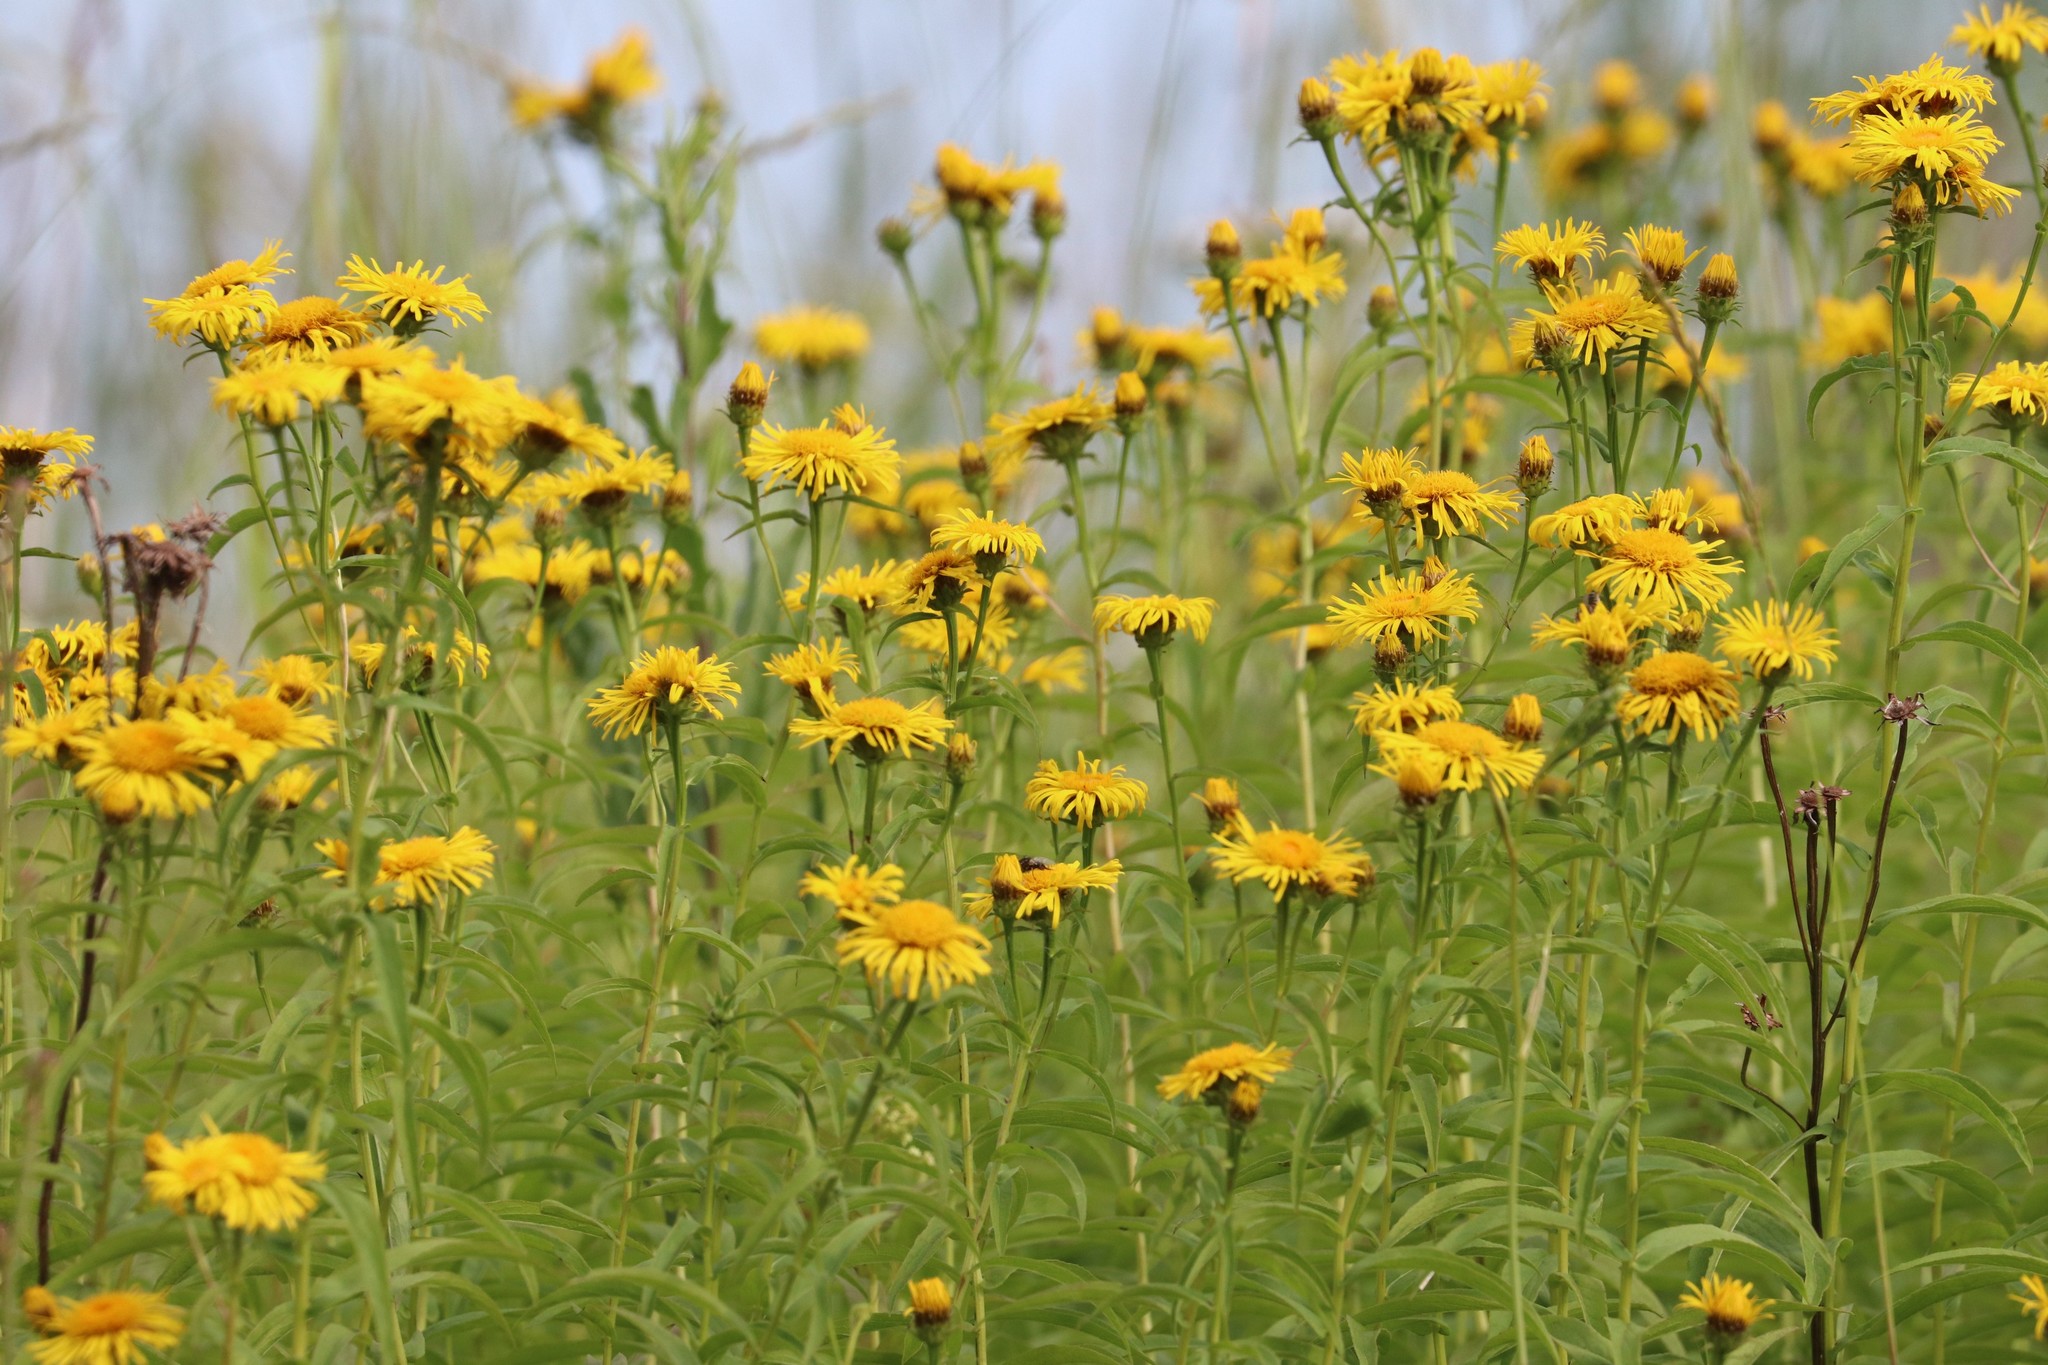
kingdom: Plantae
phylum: Tracheophyta
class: Magnoliopsida
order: Asterales
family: Asteraceae
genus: Pentanema
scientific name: Pentanema salicinum
